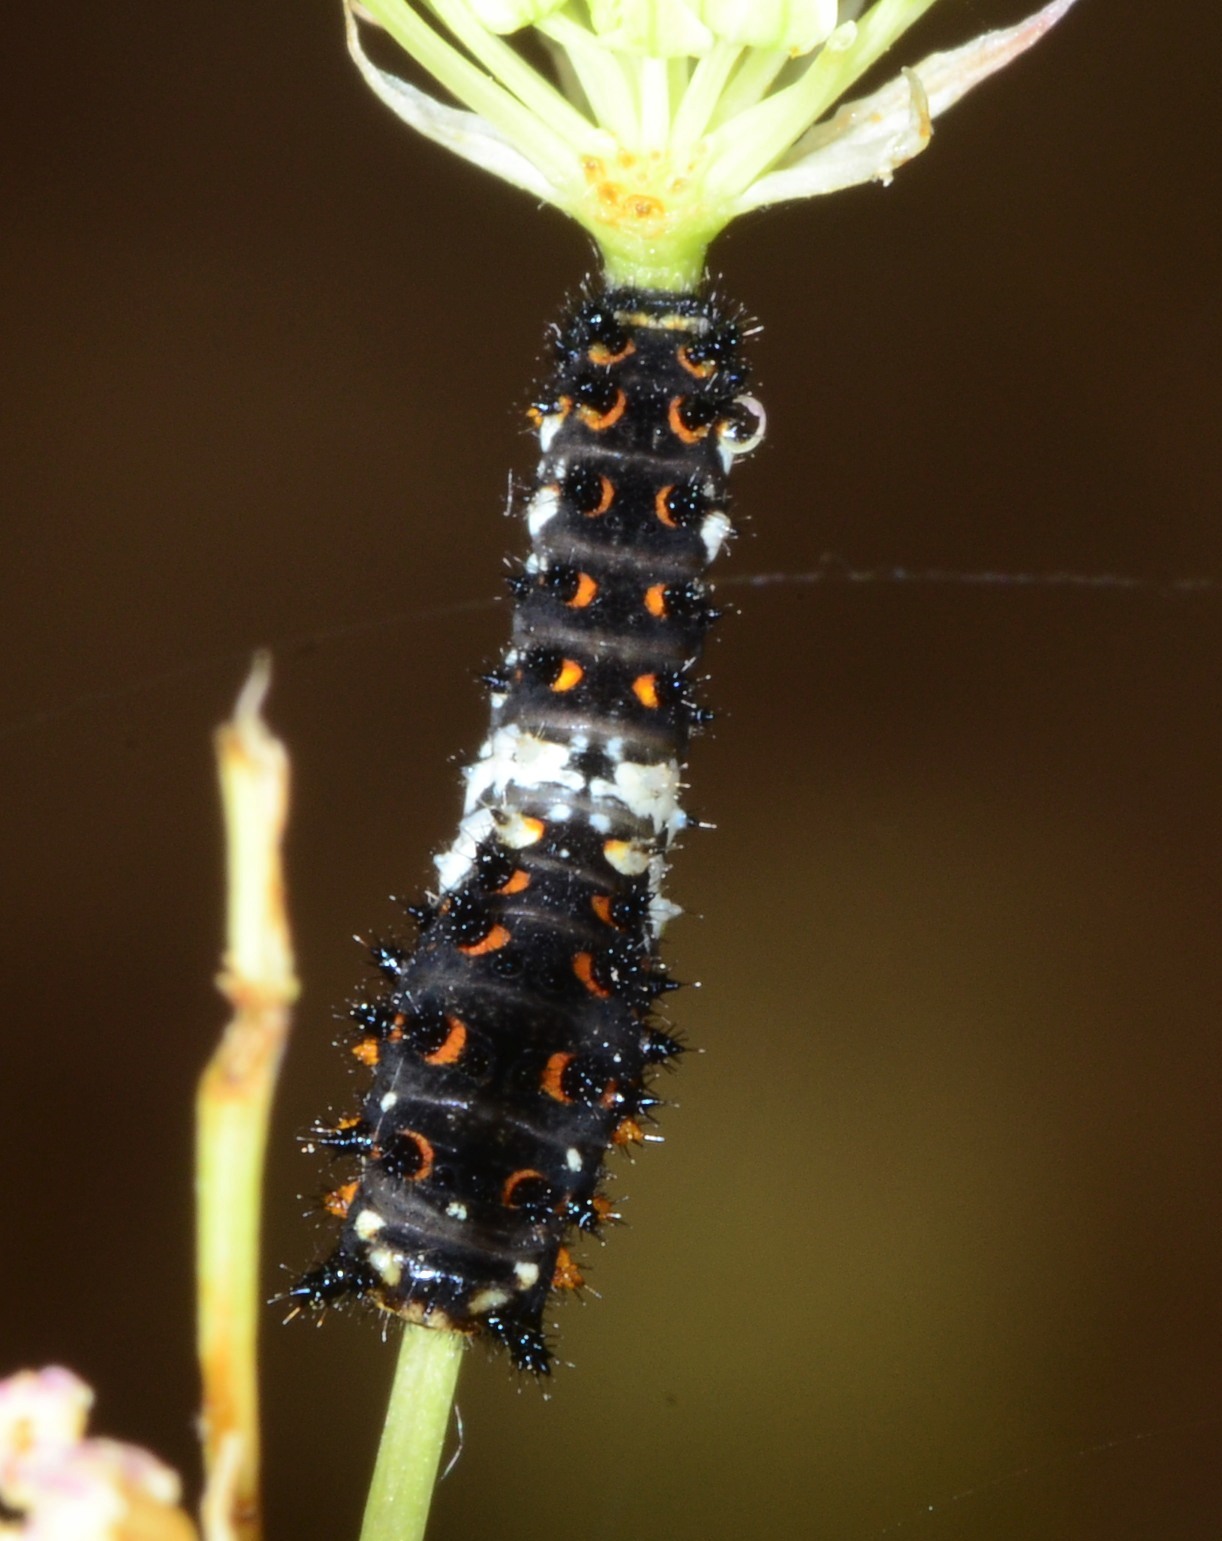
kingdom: Animalia
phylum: Arthropoda
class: Insecta
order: Lepidoptera
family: Papilionidae
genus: Papilio
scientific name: Papilio zelicaon
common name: Anise swallowtail
